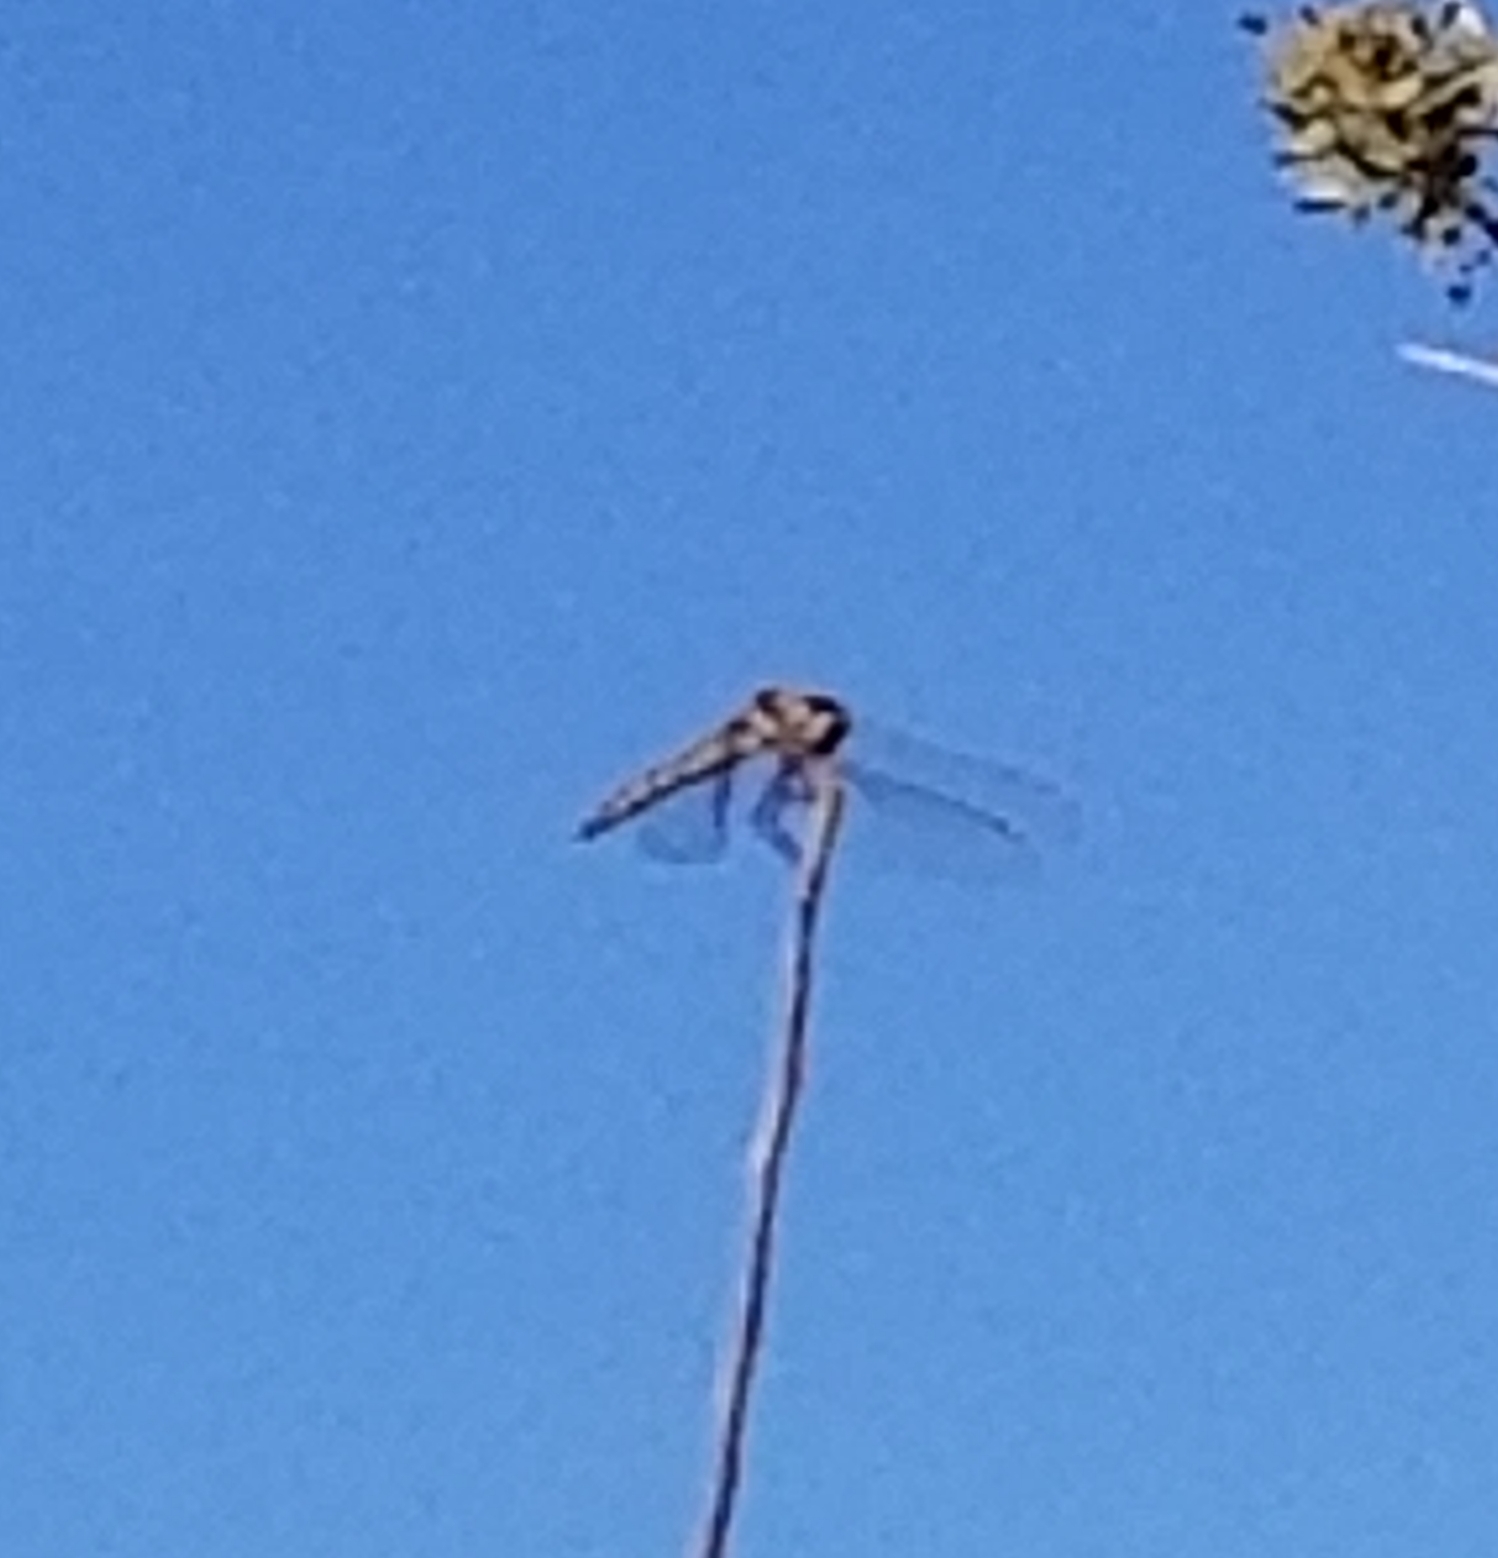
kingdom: Animalia
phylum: Arthropoda
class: Insecta
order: Odonata
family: Libellulidae
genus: Sympetrum
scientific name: Sympetrum corruptum
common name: Variegated meadowhawk
